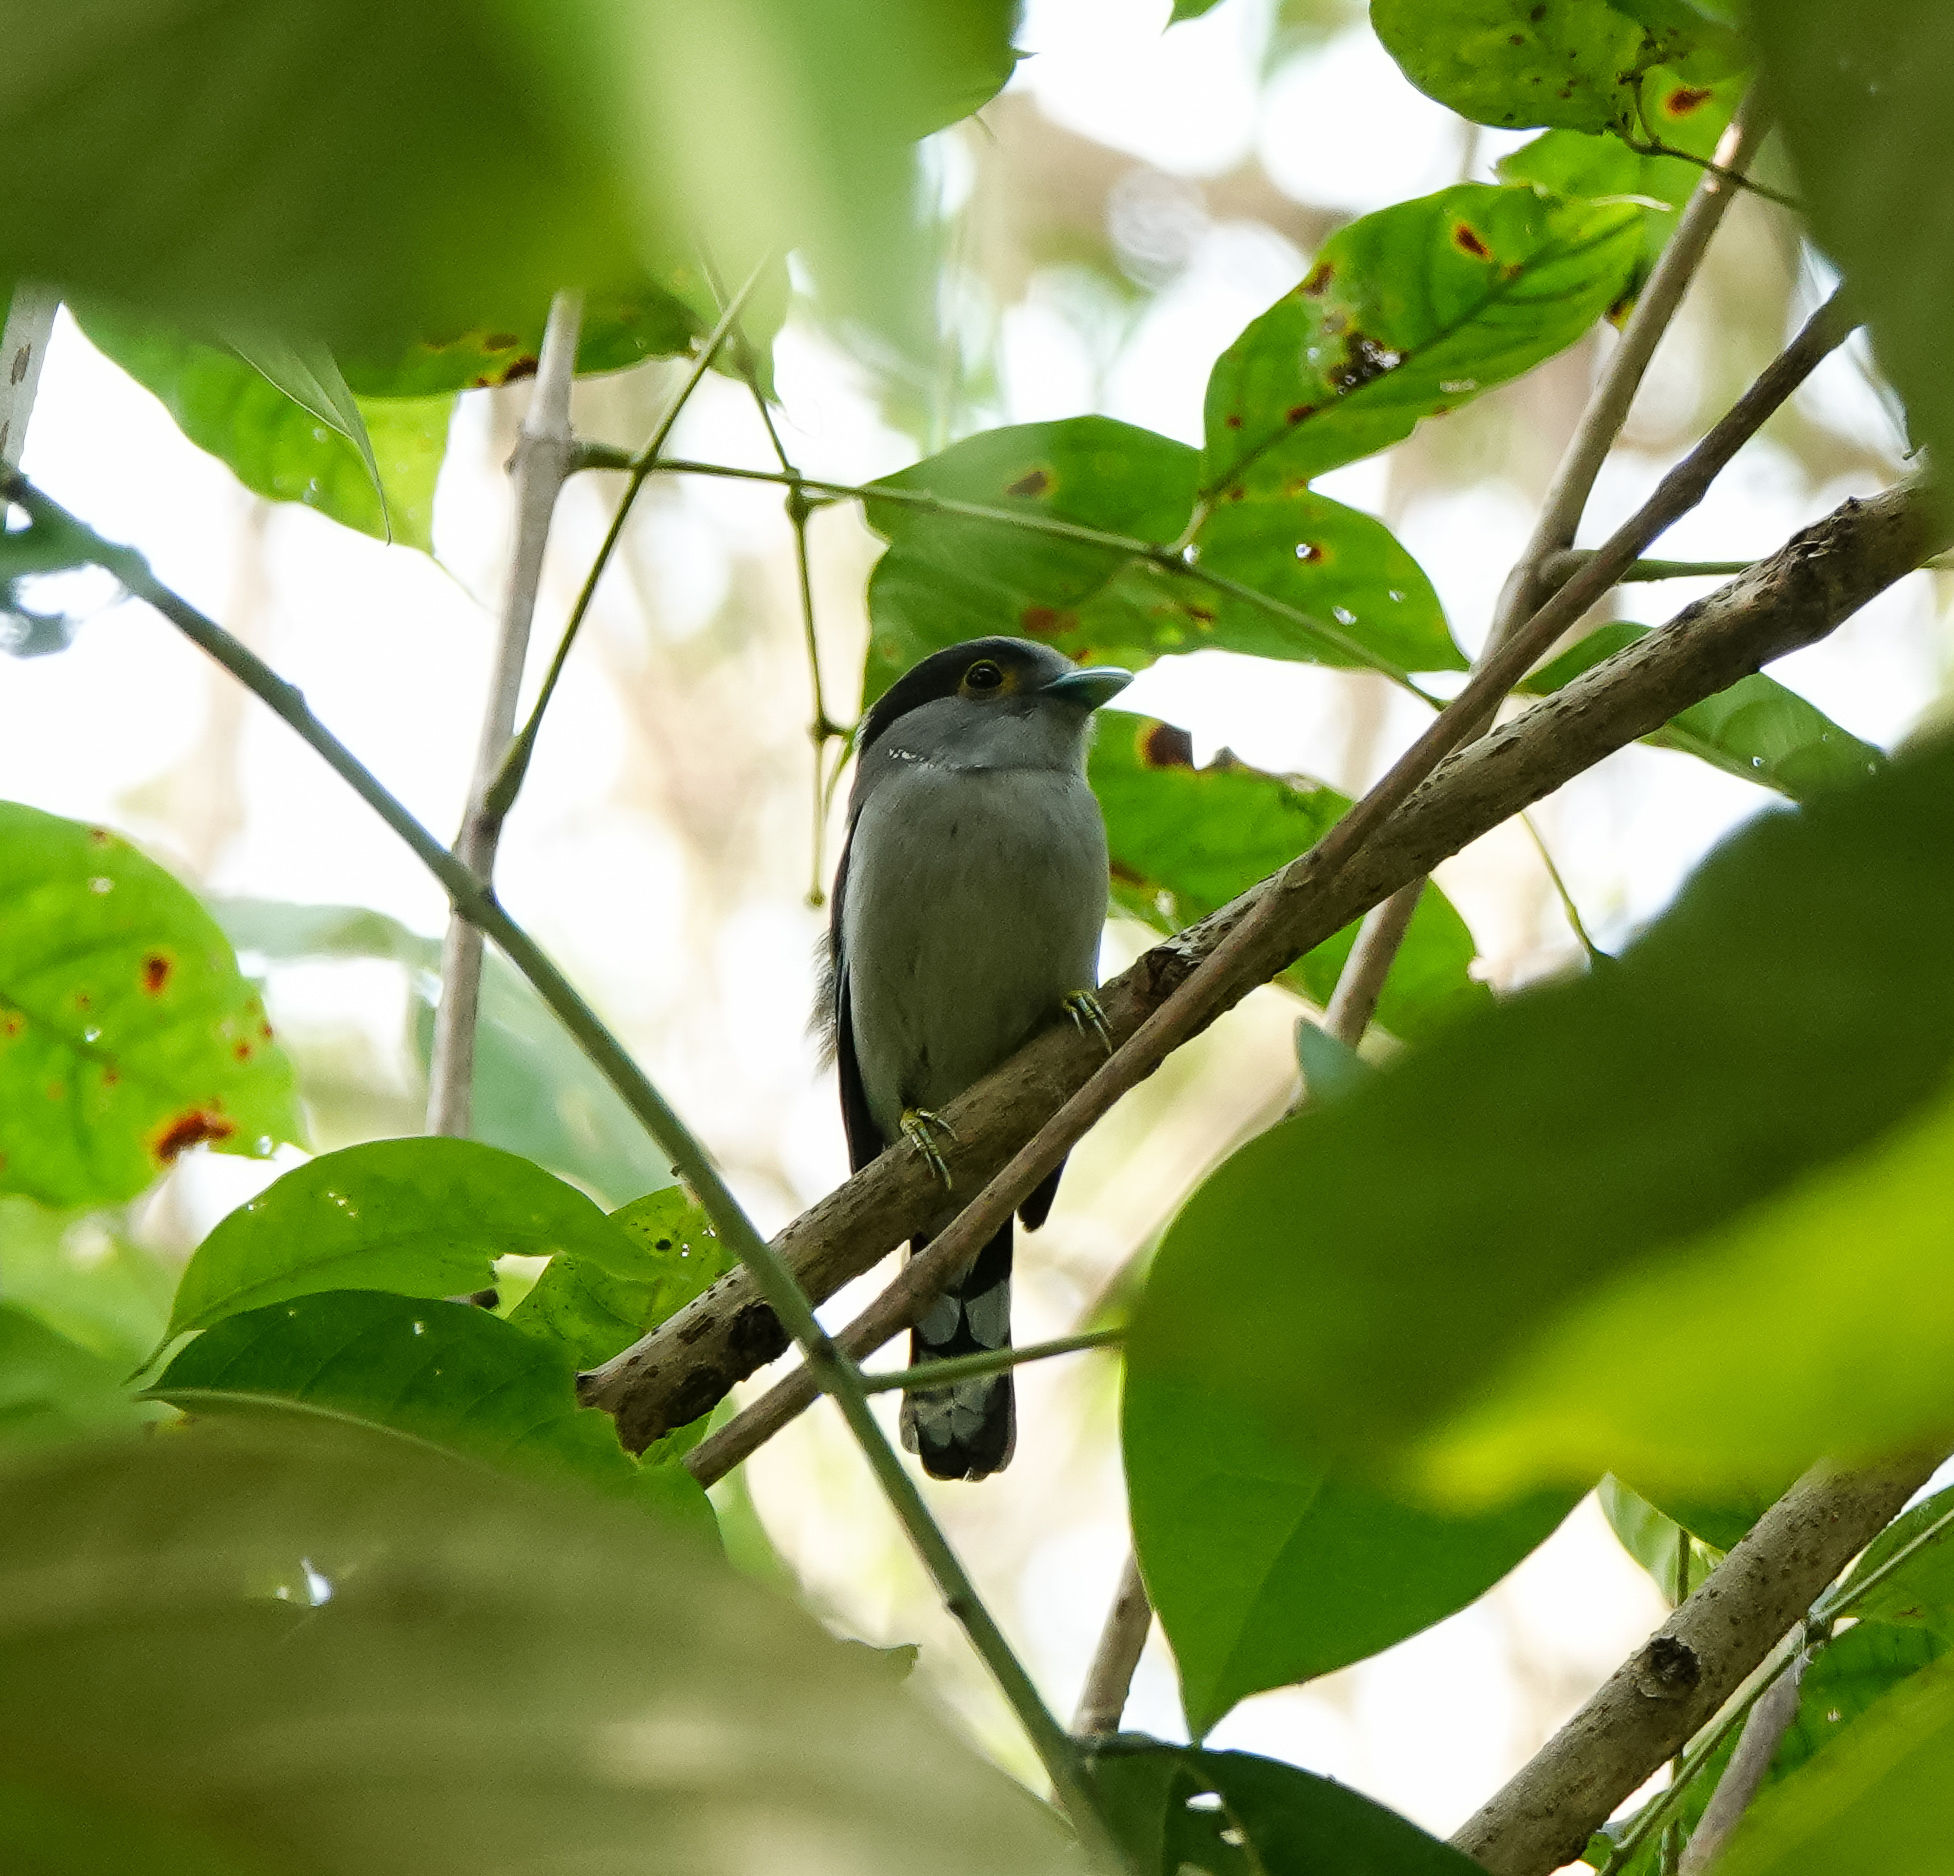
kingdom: Animalia
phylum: Chordata
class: Aves
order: Passeriformes
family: Eurylaimidae
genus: Serilophus
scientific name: Serilophus lunatus
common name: Silver-breasted broadbill
